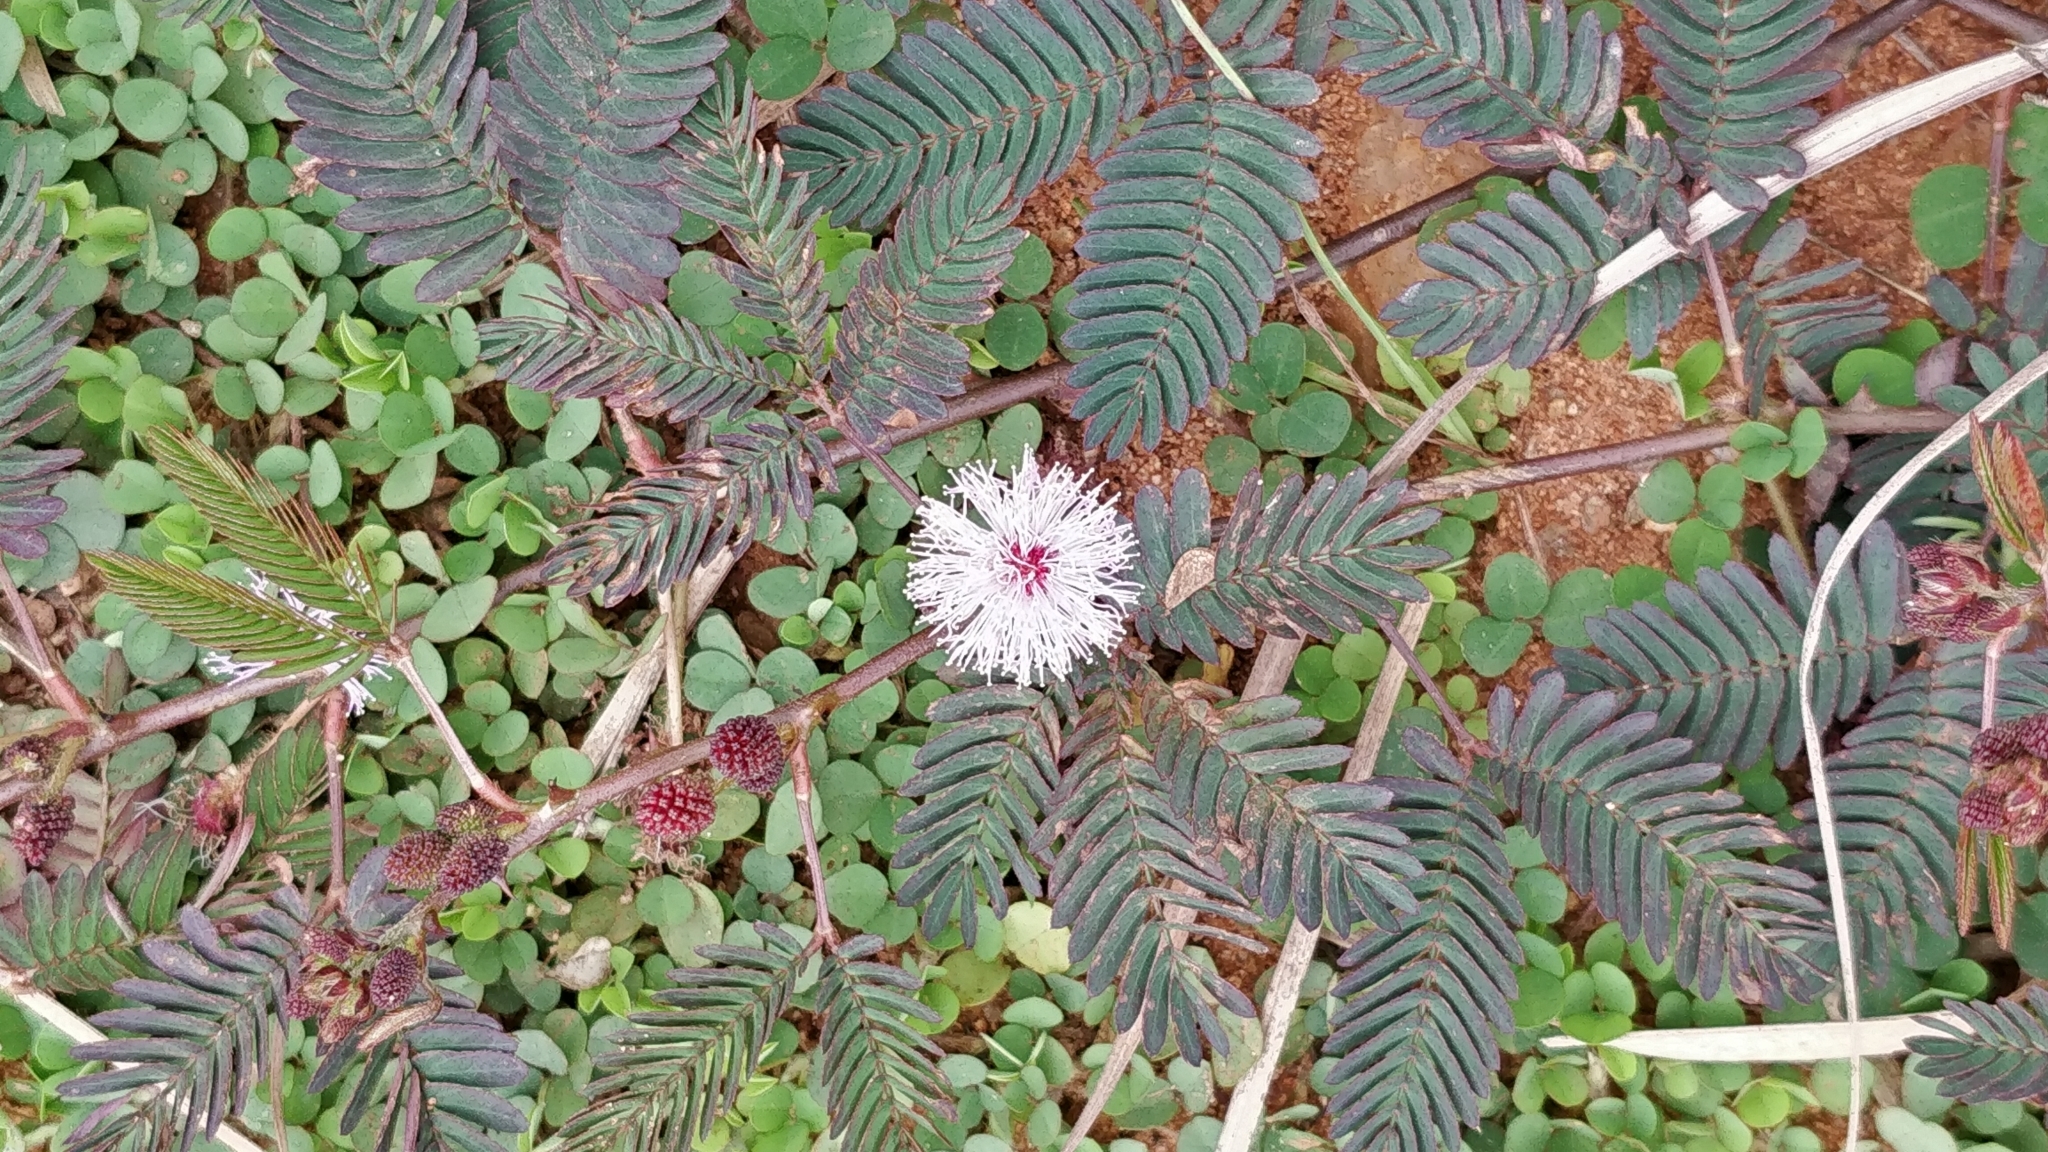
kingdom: Plantae
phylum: Tracheophyta
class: Magnoliopsida
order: Fabales
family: Fabaceae
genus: Mimosa
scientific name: Mimosa pudica
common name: Sensitive plant
